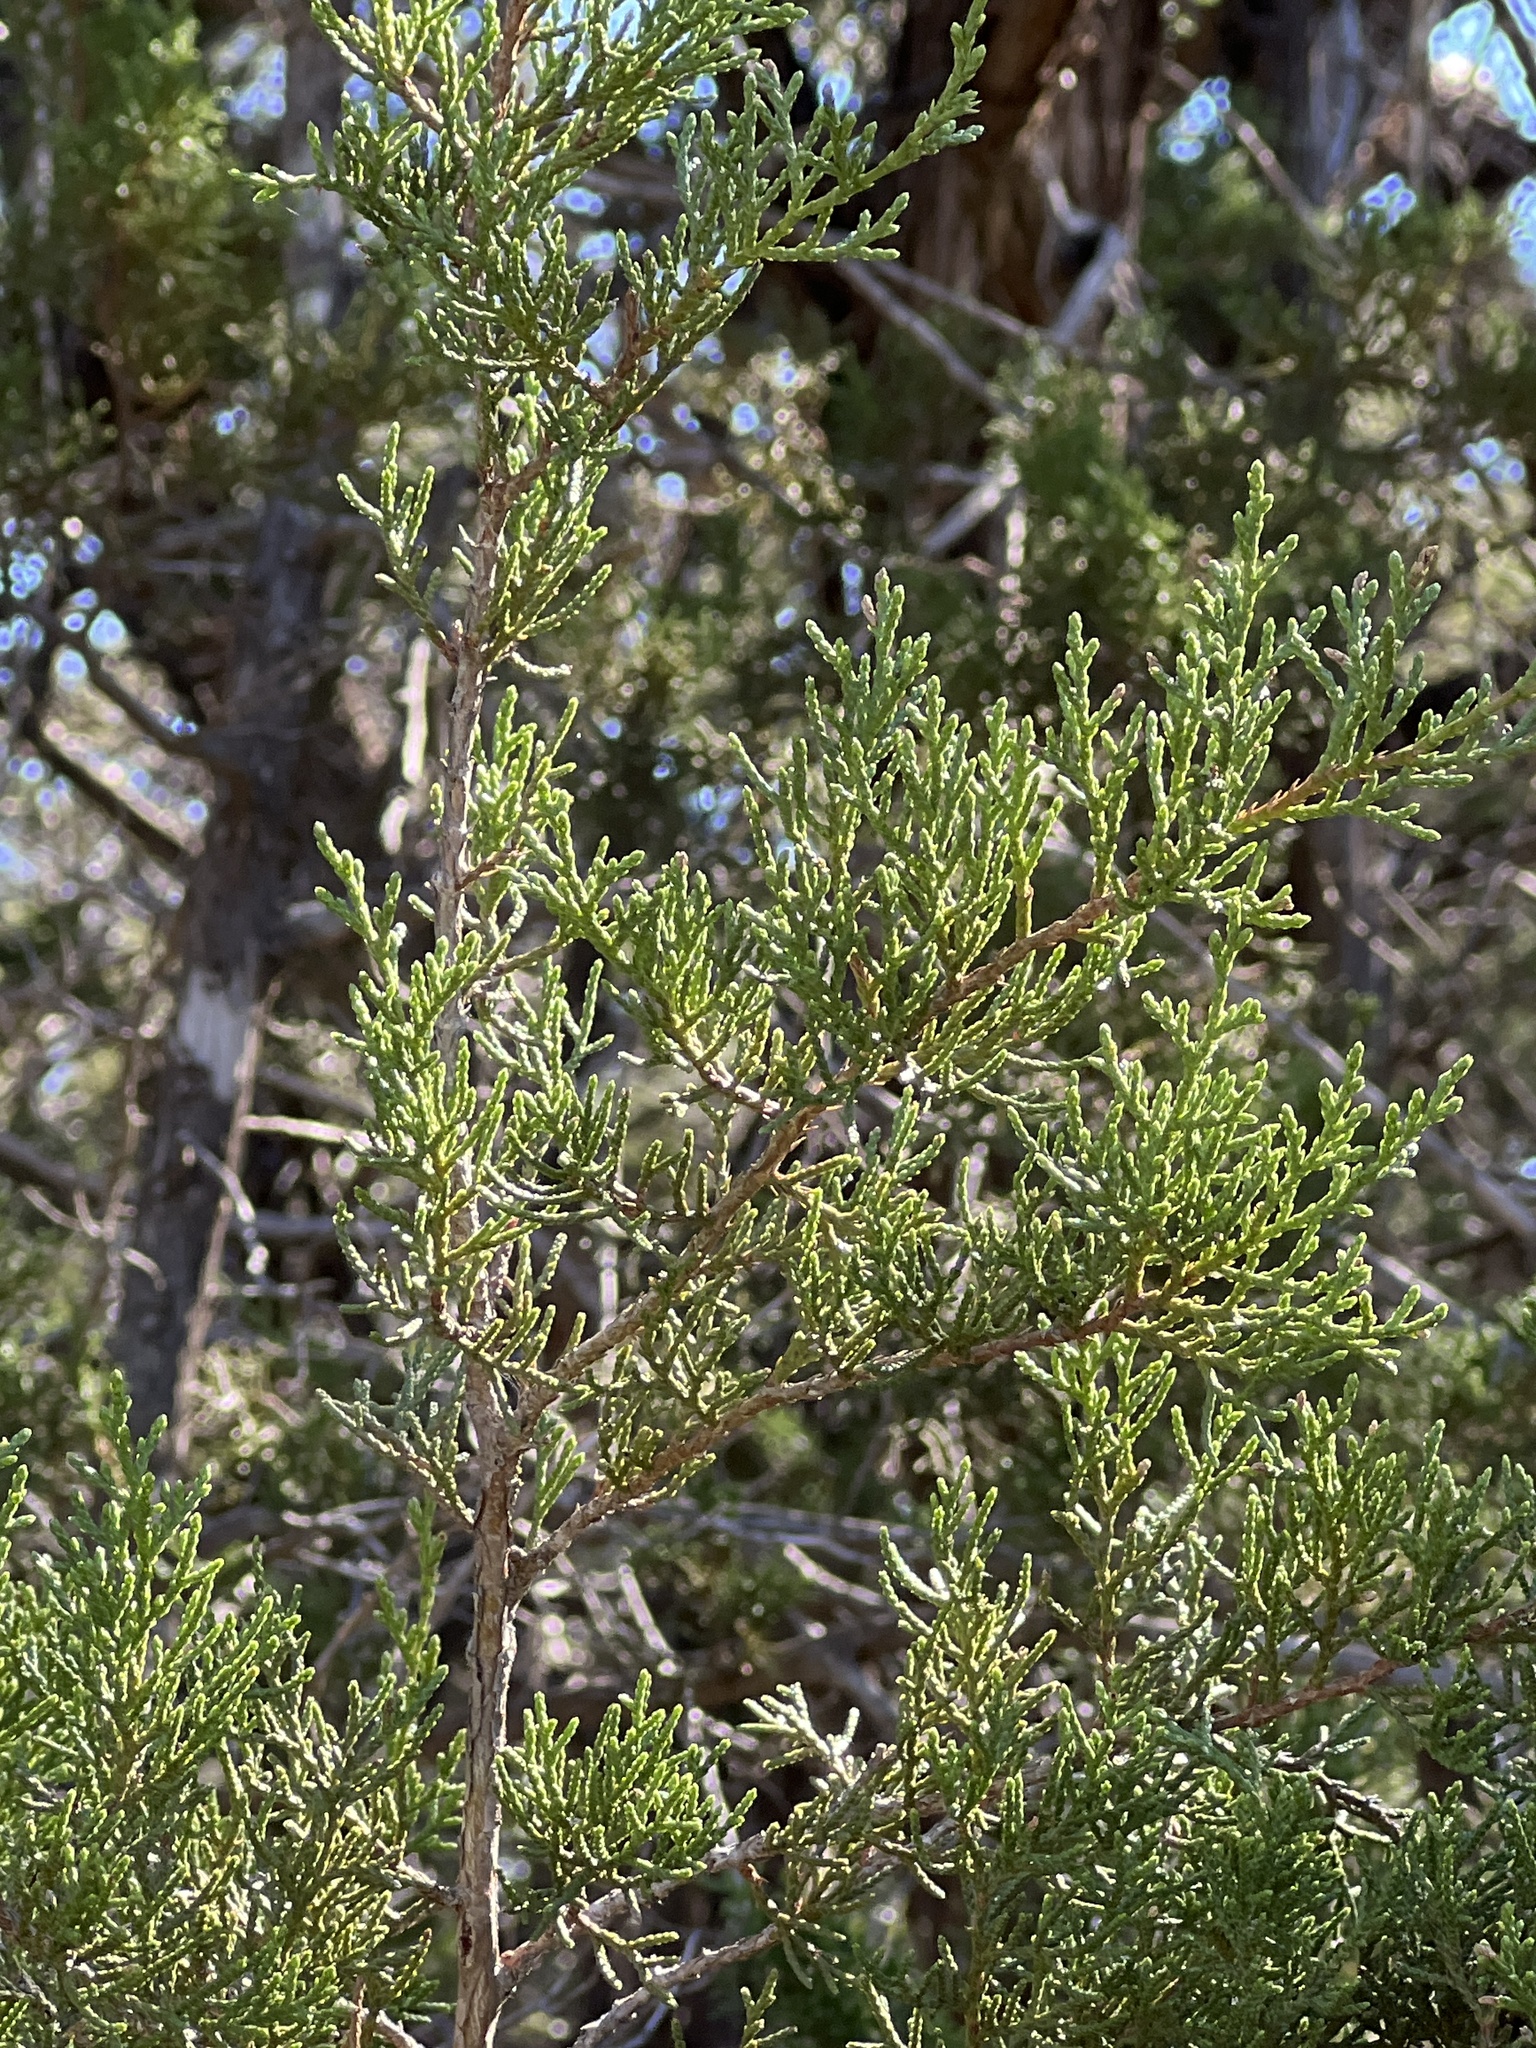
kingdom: Plantae
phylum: Tracheophyta
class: Pinopsida
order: Pinales
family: Cupressaceae
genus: Juniperus
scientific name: Juniperus ashei
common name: Mexican juniper
